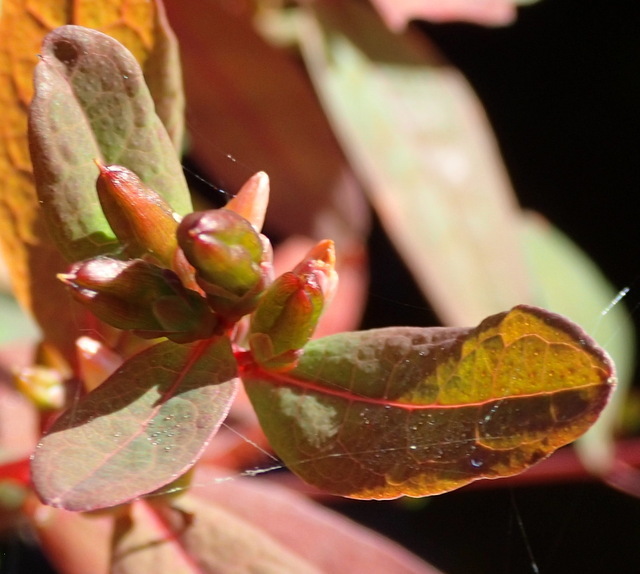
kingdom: Plantae
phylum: Tracheophyta
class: Magnoliopsida
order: Malpighiales
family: Hypericaceae
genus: Triadenum
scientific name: Triadenum walteri
